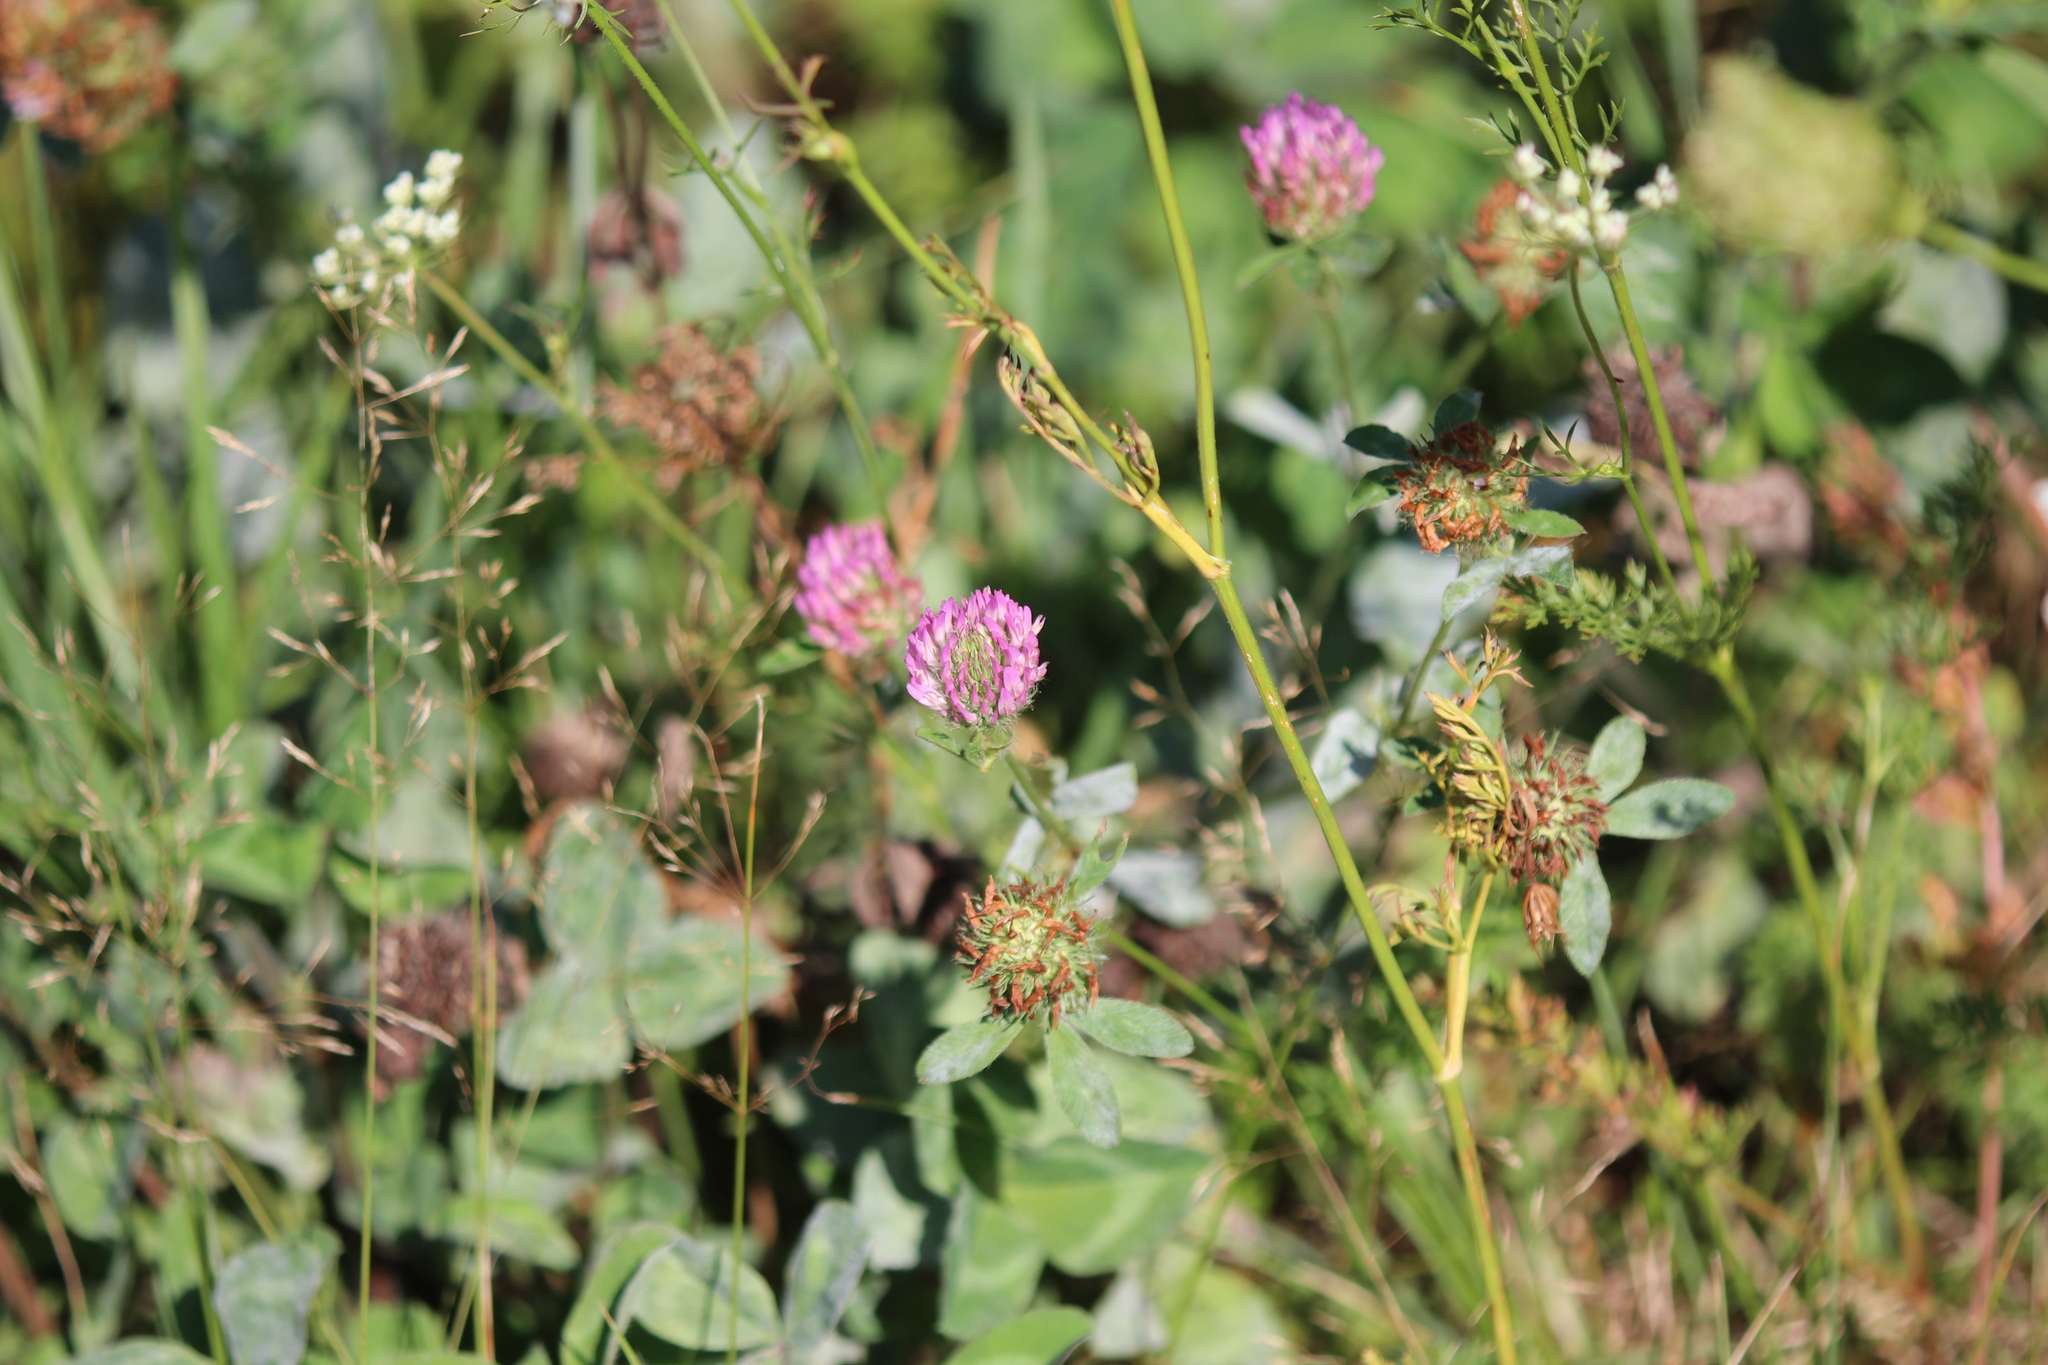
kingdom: Plantae
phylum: Tracheophyta
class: Magnoliopsida
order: Fabales
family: Fabaceae
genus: Trifolium
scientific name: Trifolium pratense
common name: Red clover
